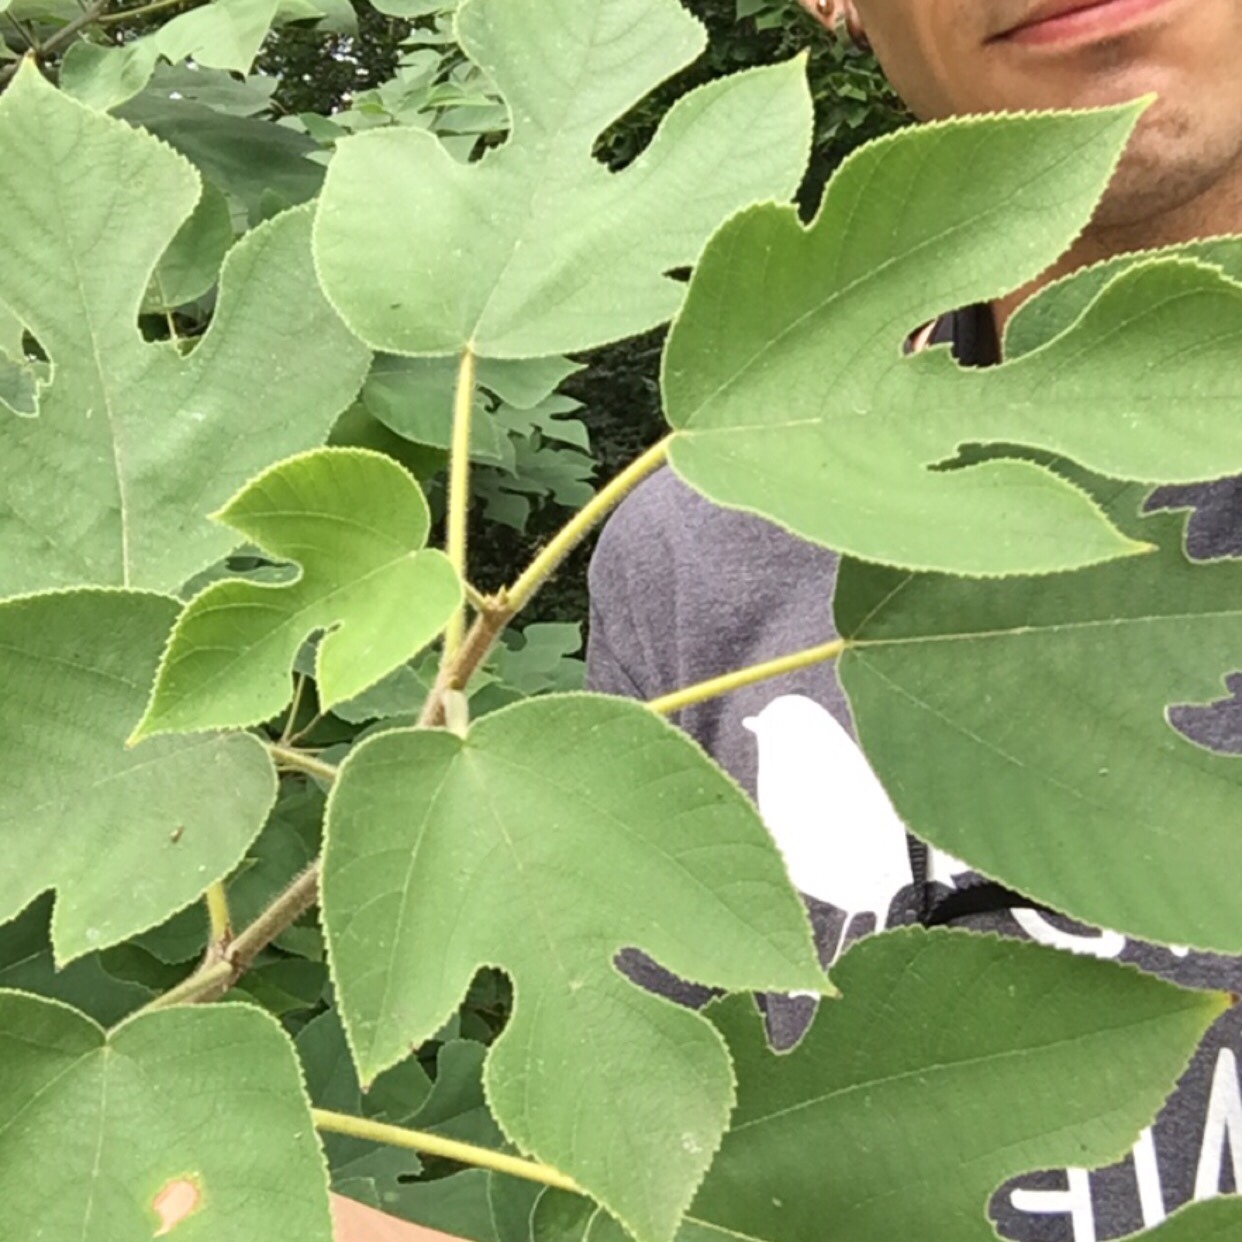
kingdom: Plantae
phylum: Tracheophyta
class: Magnoliopsida
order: Rosales
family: Moraceae
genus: Broussonetia
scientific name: Broussonetia papyrifera
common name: Paper mulberry
